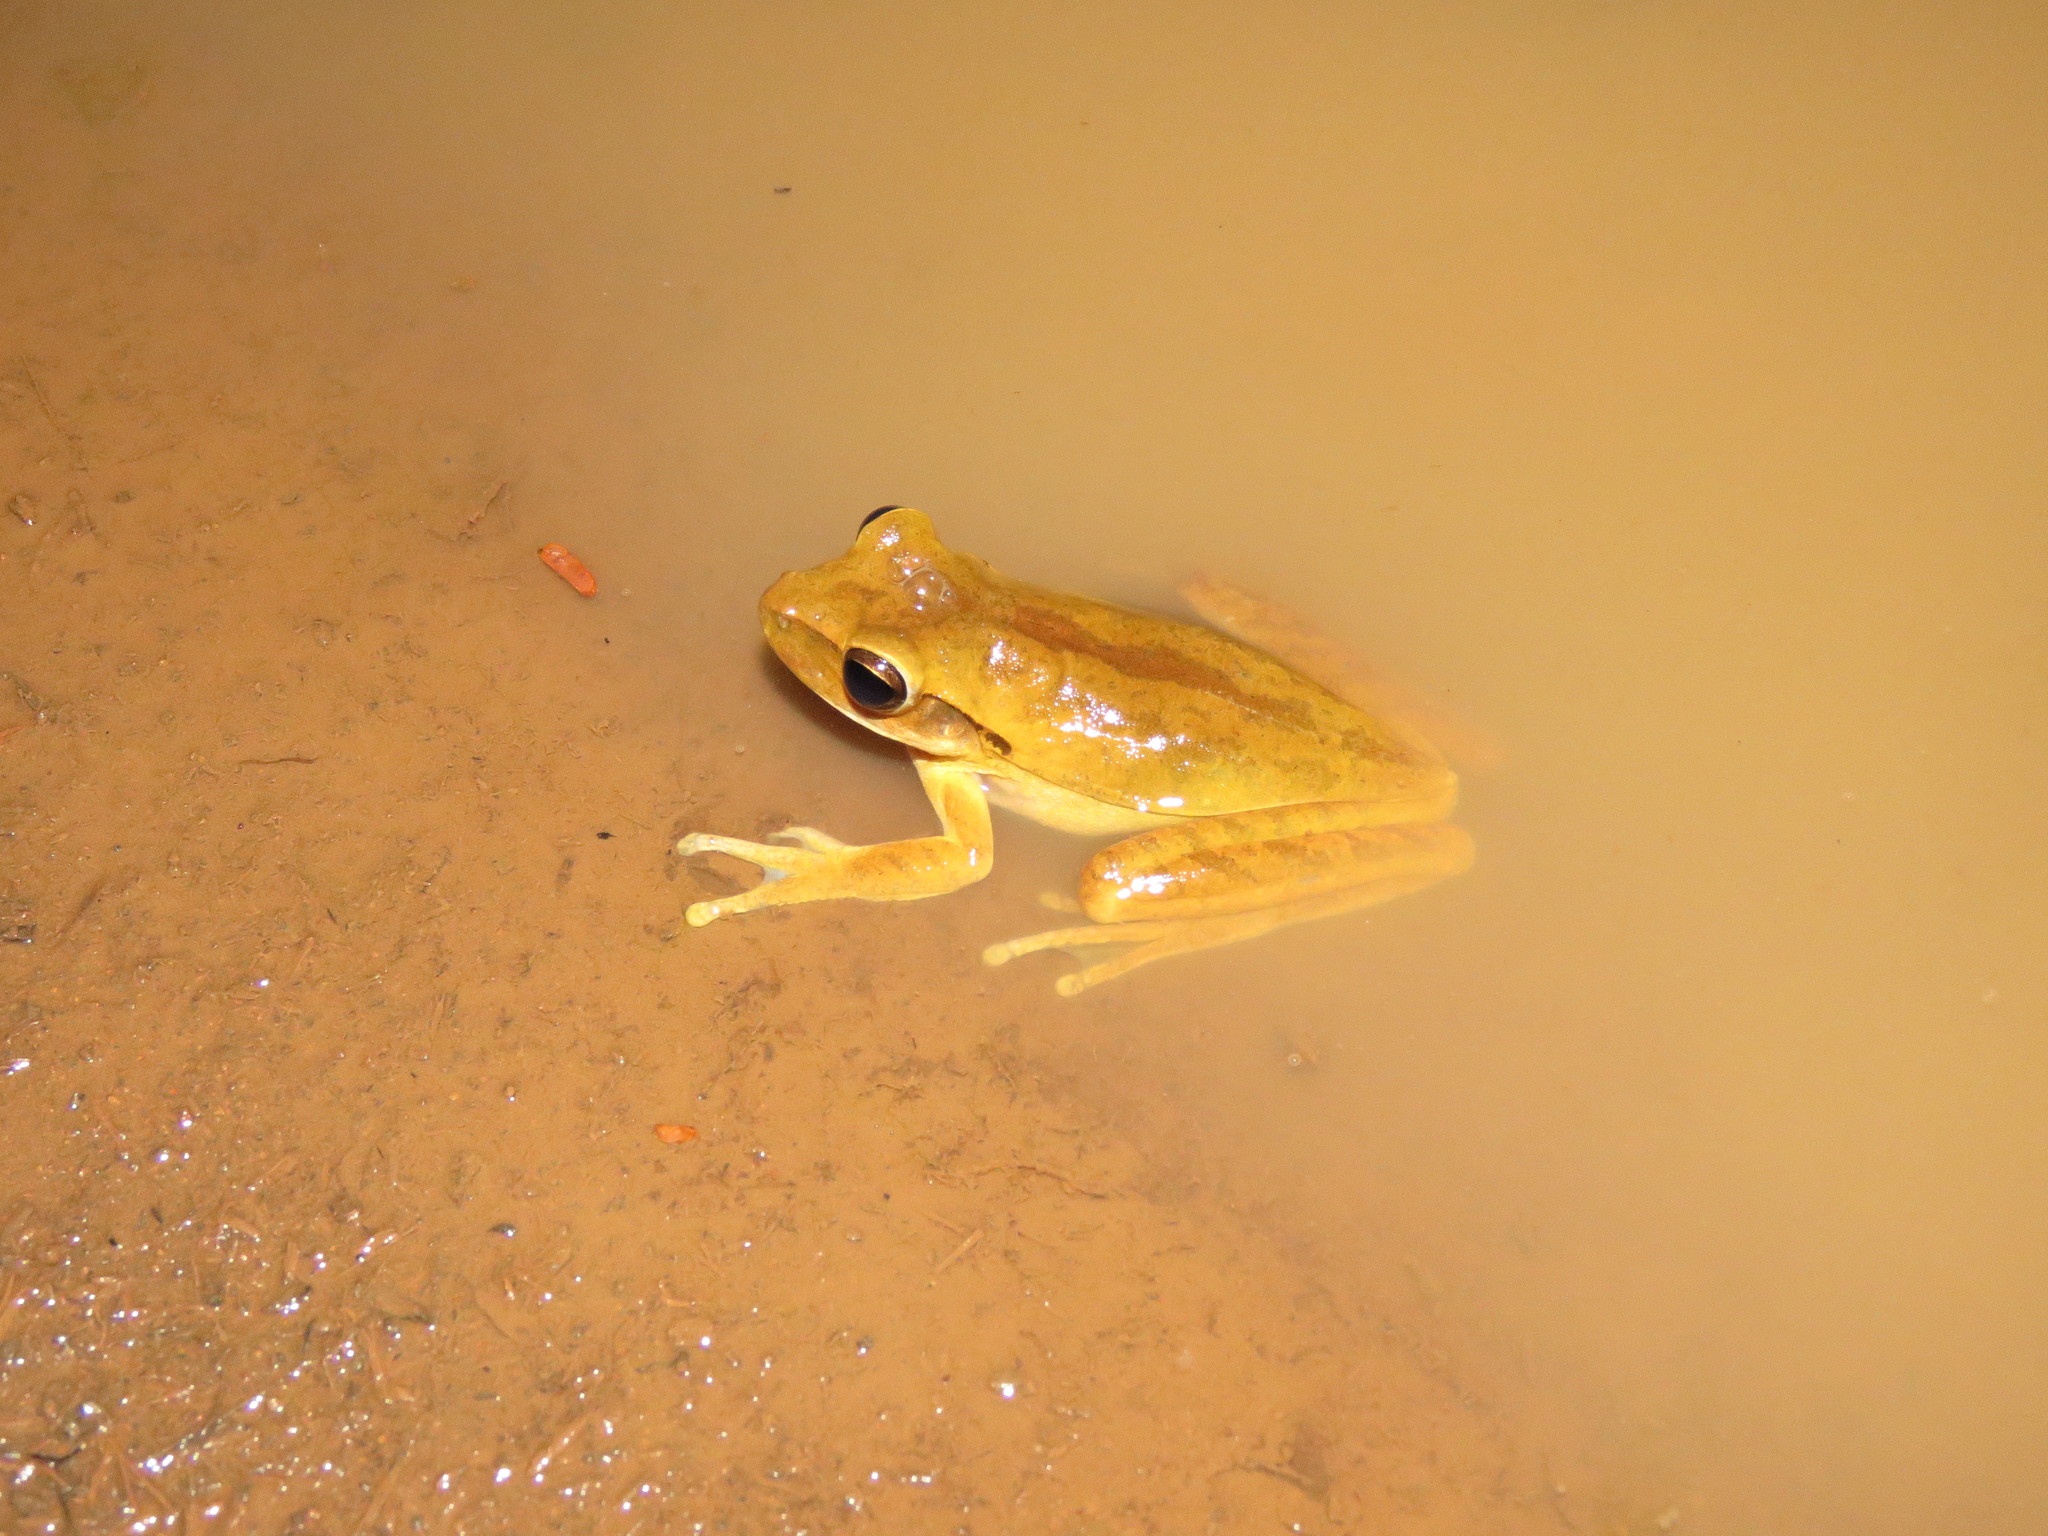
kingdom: Animalia
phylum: Chordata
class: Amphibia
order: Anura
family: Hylidae
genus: Boana
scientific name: Boana raniceps
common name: Chaco treefrog
